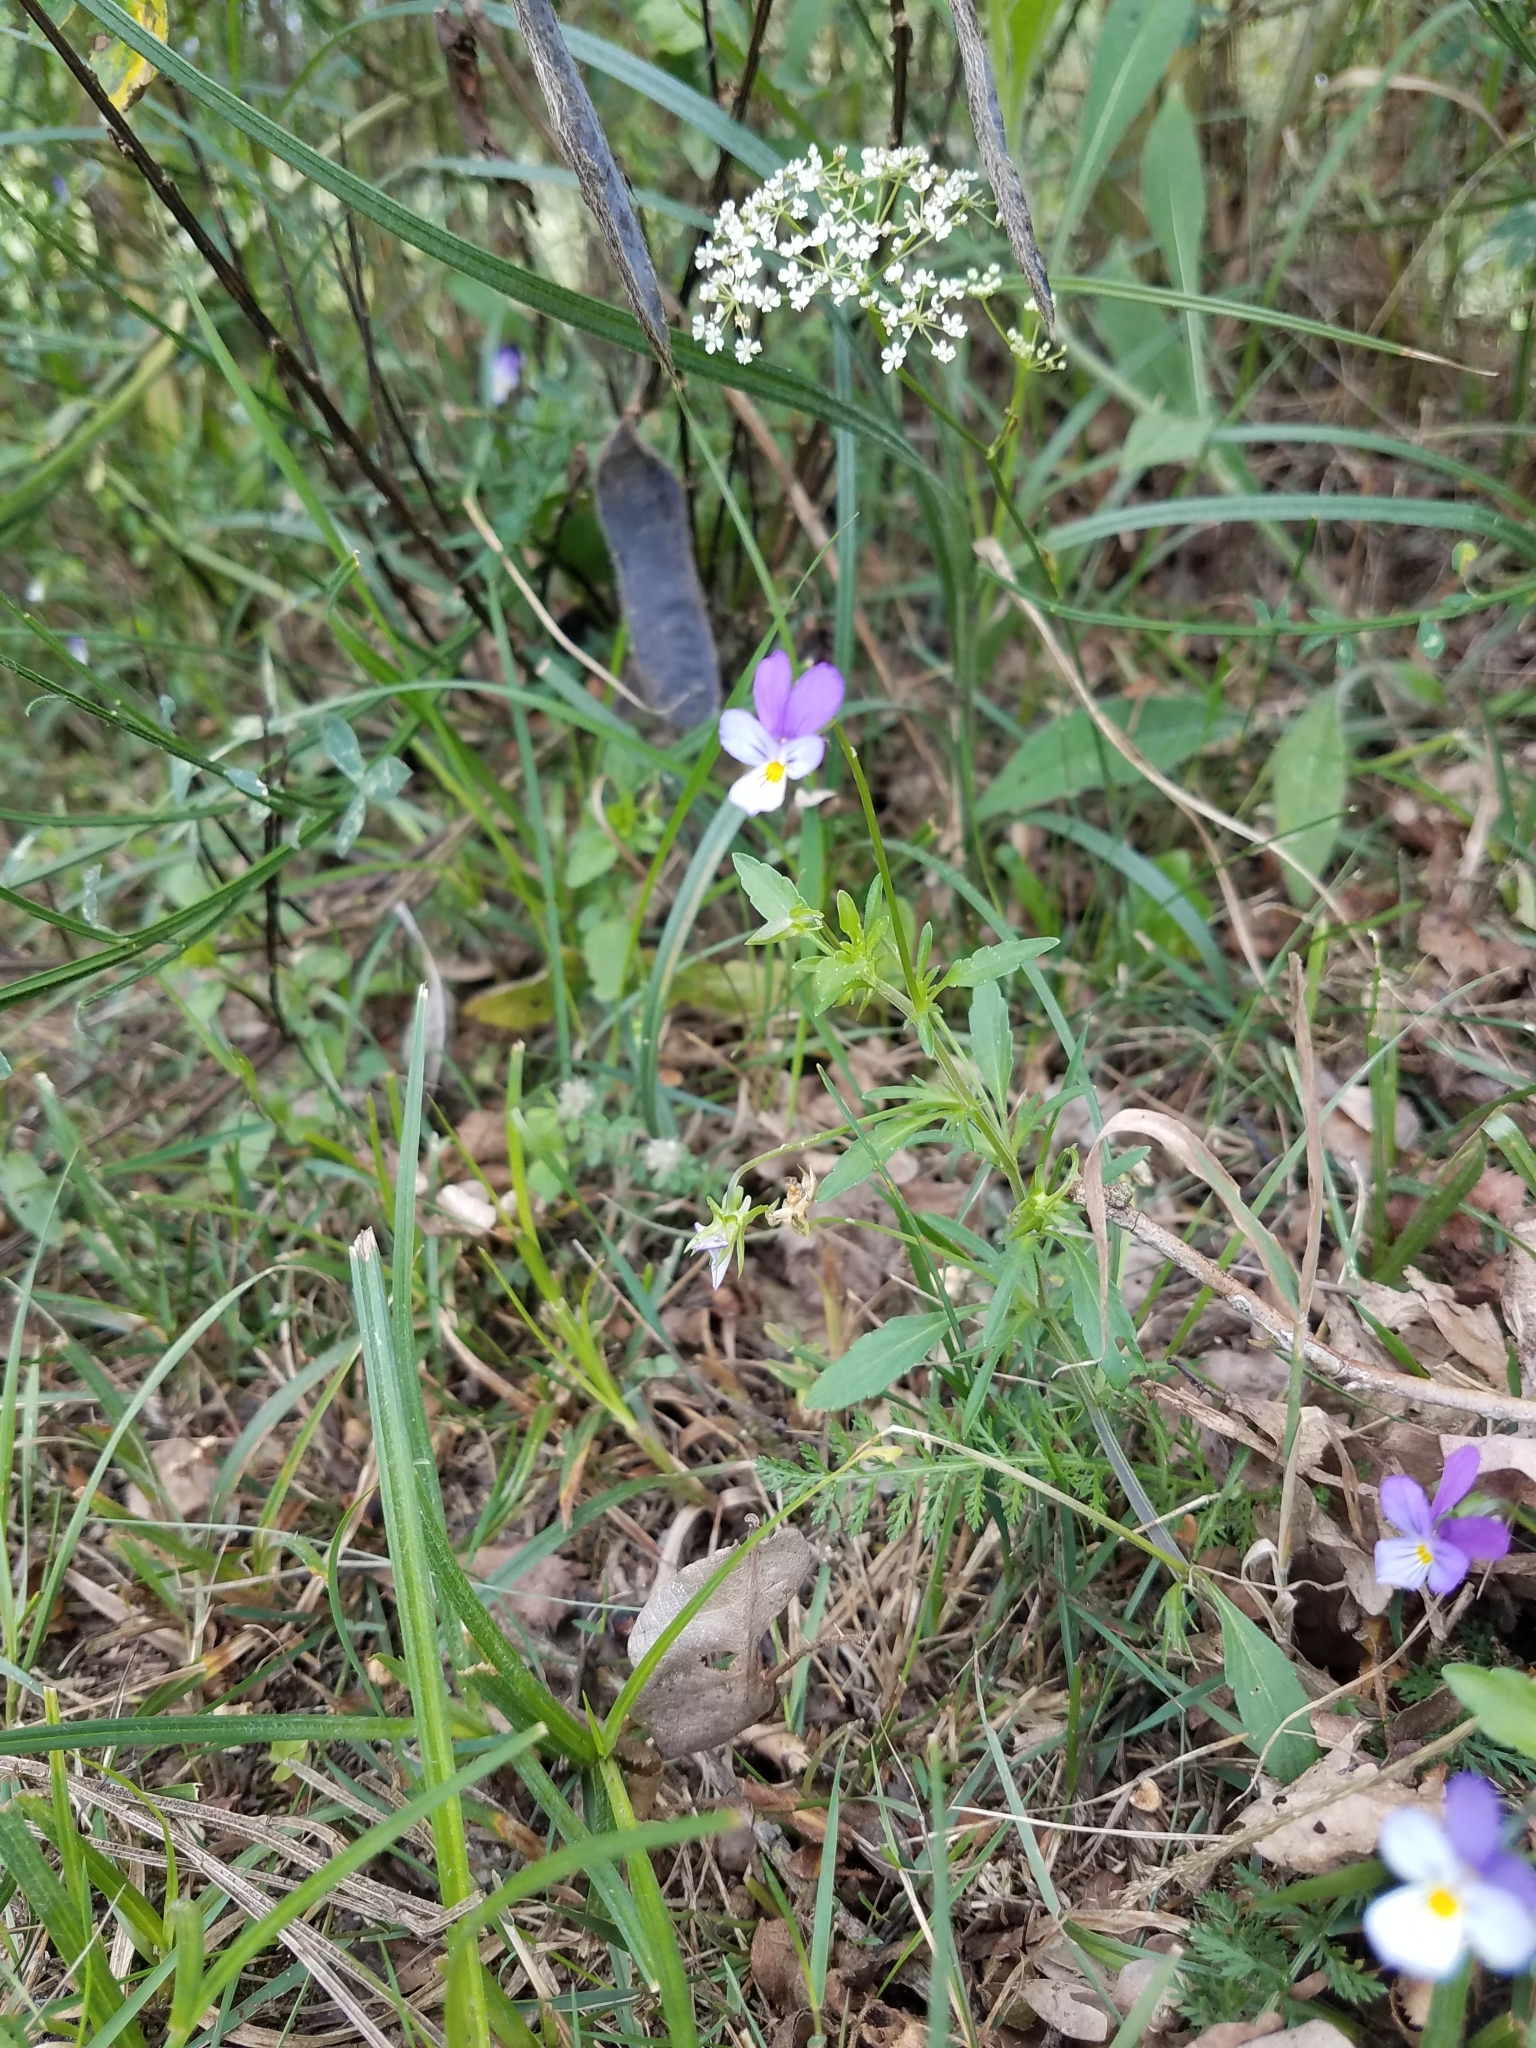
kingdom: Plantae
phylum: Tracheophyta
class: Magnoliopsida
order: Malpighiales
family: Violaceae
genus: Viola
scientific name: Viola tricolor
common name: Pansy
